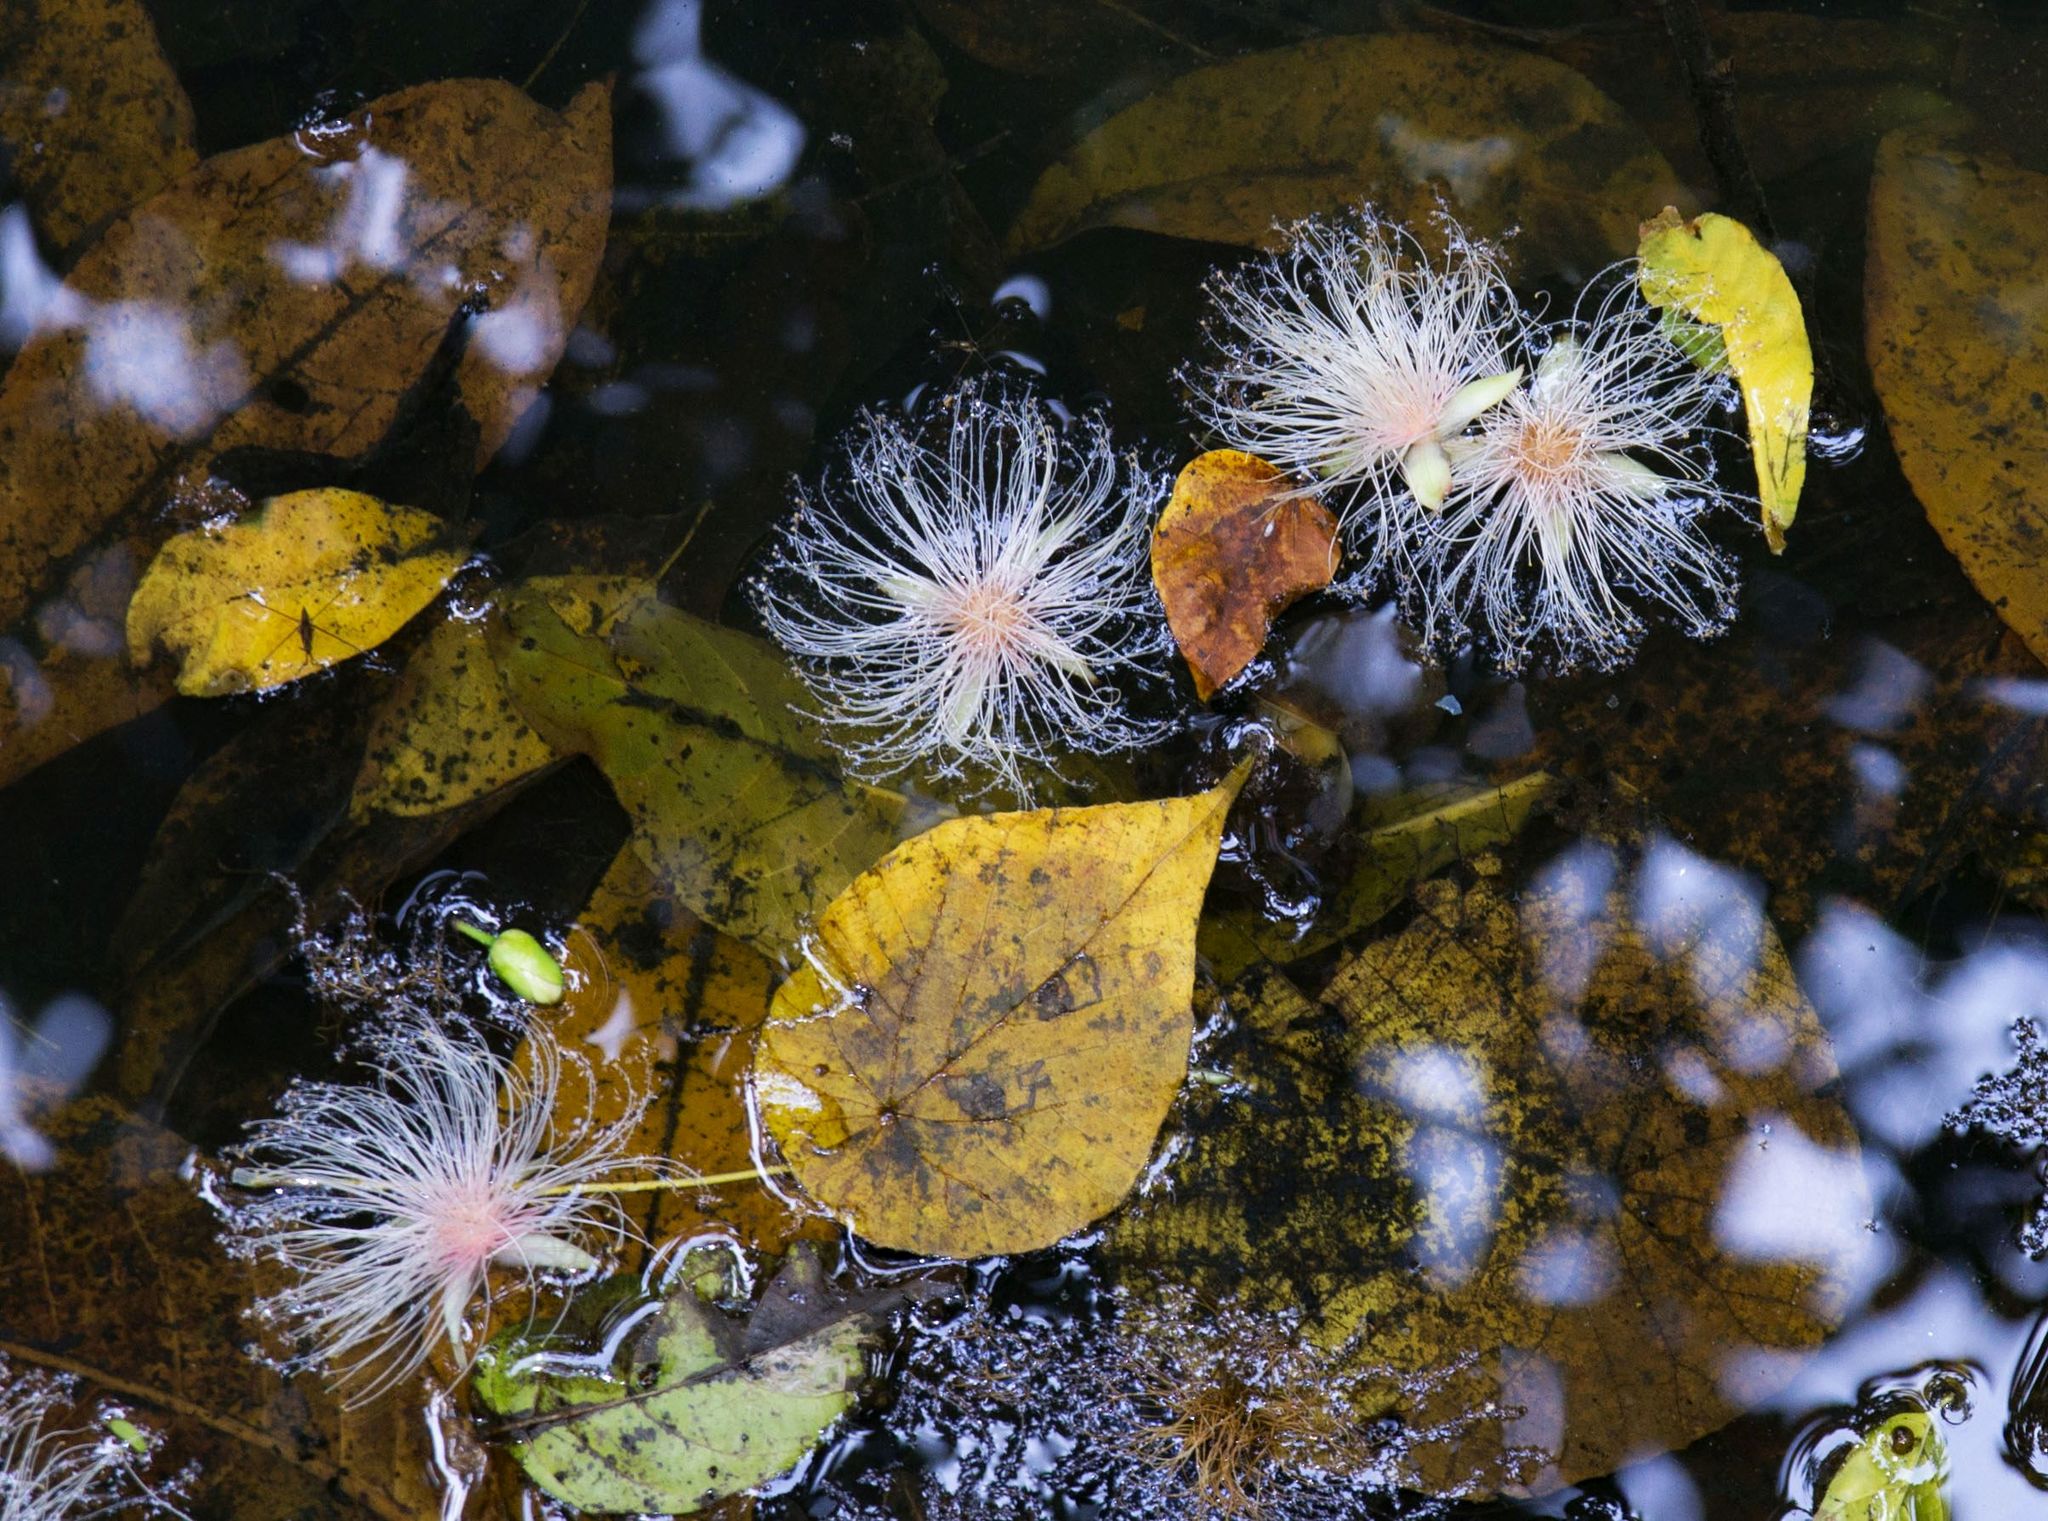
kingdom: Plantae
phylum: Tracheophyta
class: Magnoliopsida
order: Ericales
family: Lecythidaceae
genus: Barringtonia
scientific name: Barringtonia racemosa
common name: Brackwater mangrove
